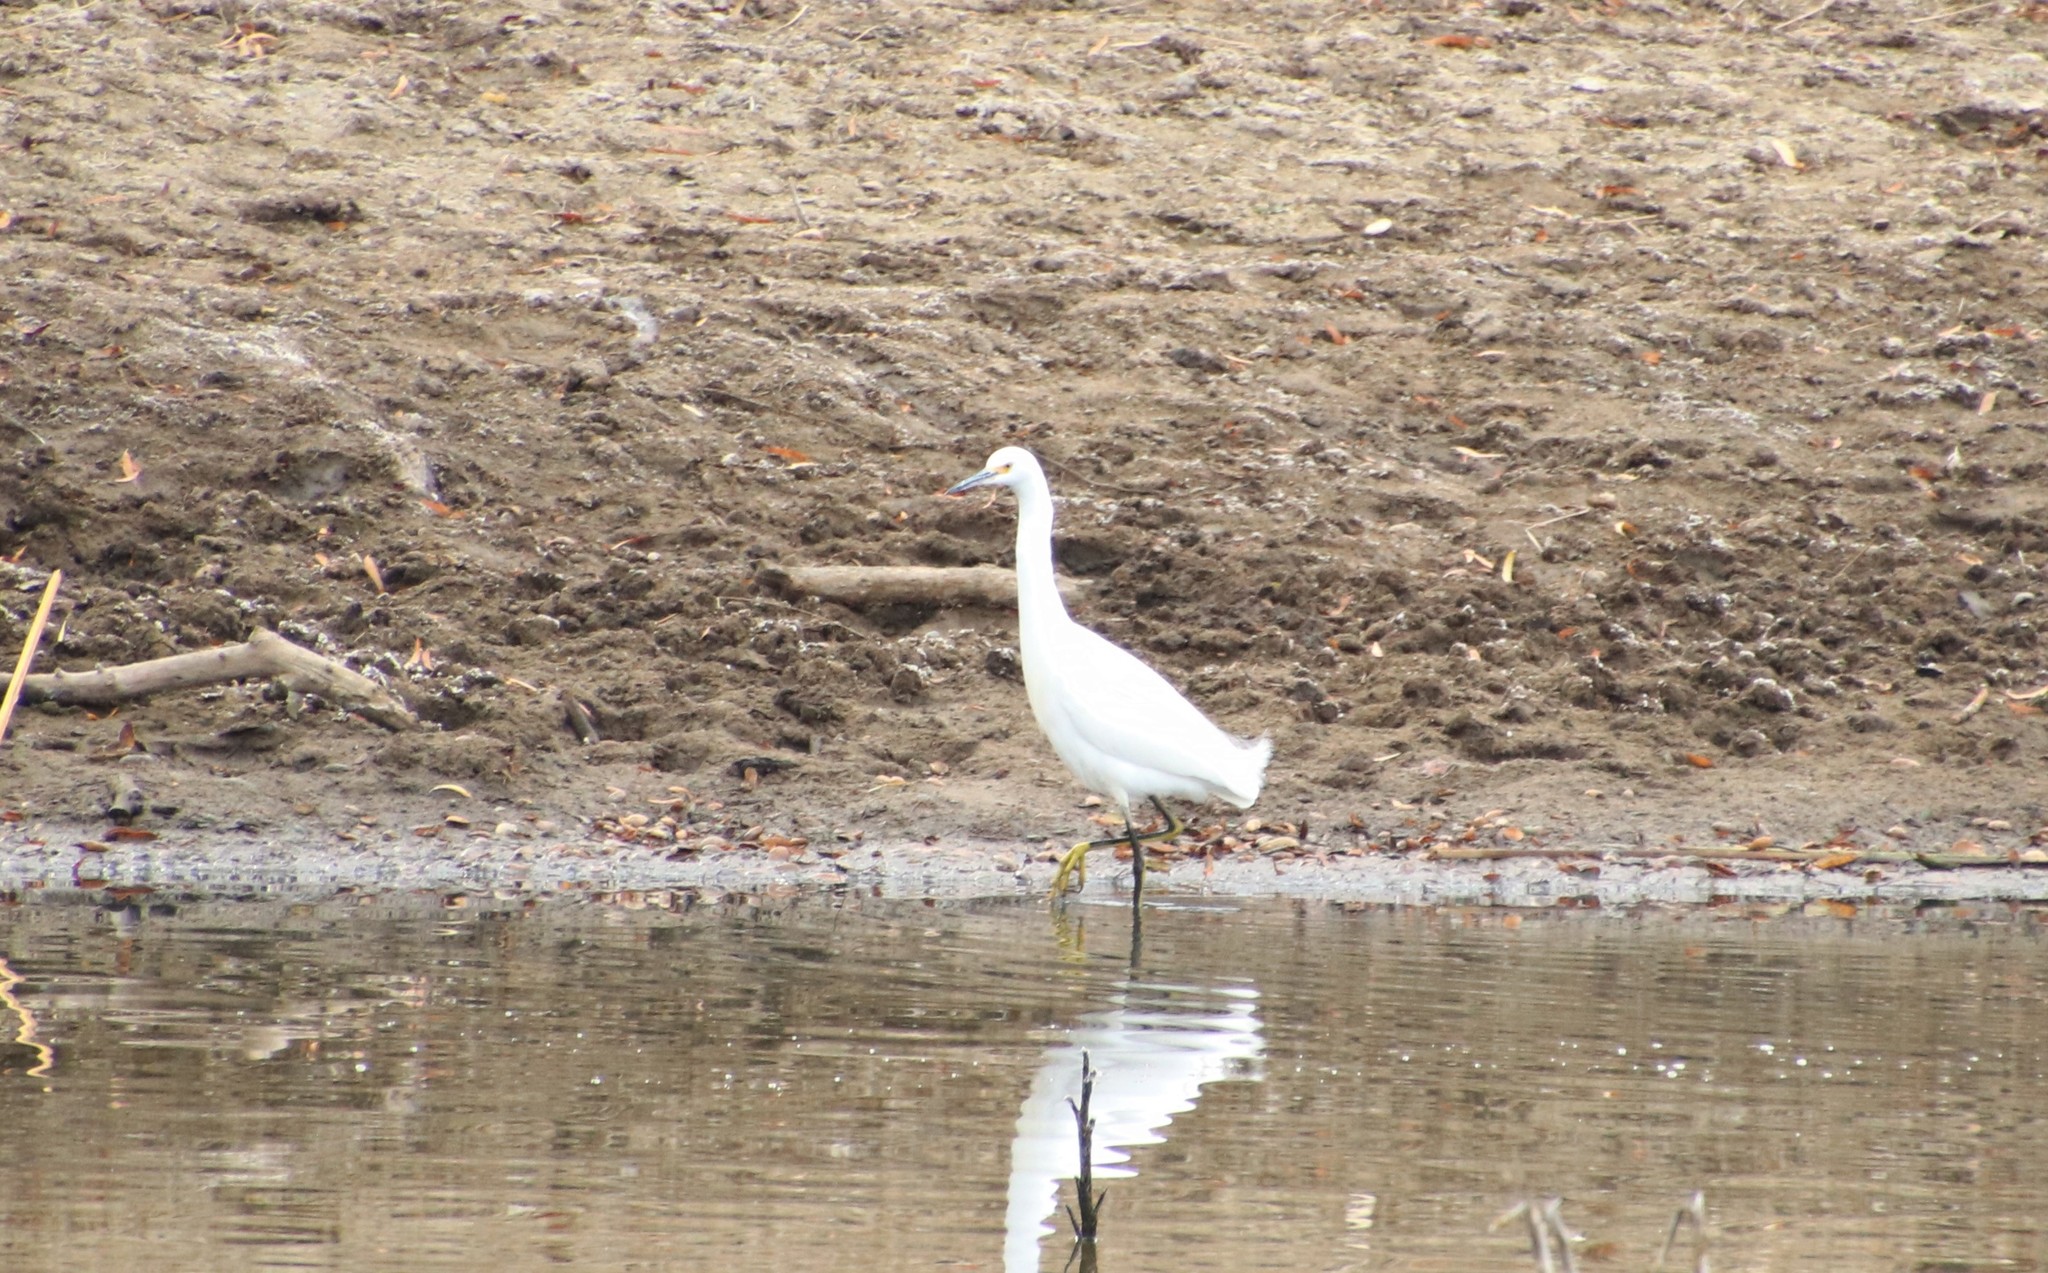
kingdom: Animalia
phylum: Chordata
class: Aves
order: Pelecaniformes
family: Ardeidae
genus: Egretta
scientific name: Egretta thula
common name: Snowy egret
